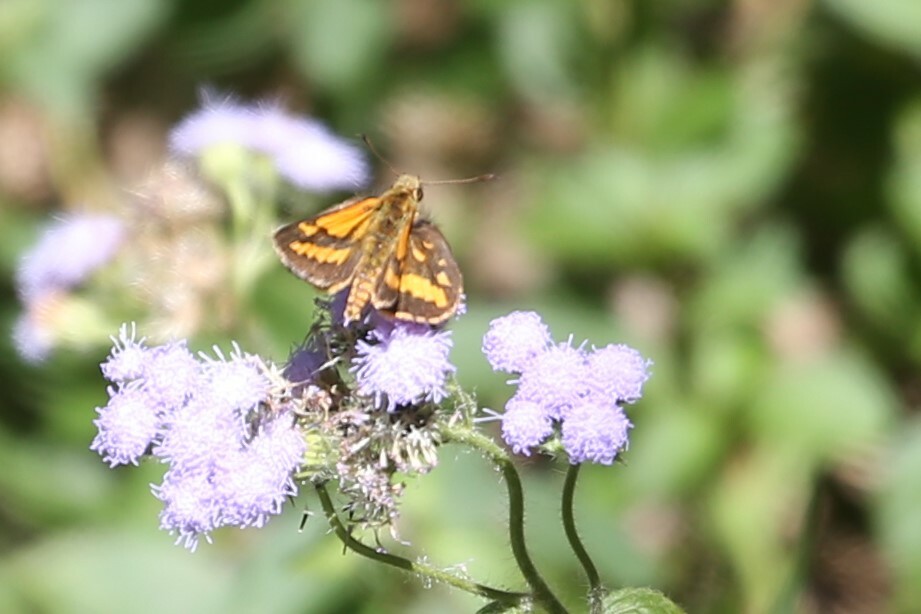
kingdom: Animalia
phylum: Arthropoda
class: Insecta
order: Lepidoptera
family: Hesperiidae
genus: Suniana
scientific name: Suniana sunias
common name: Wide-brand grass-dart
